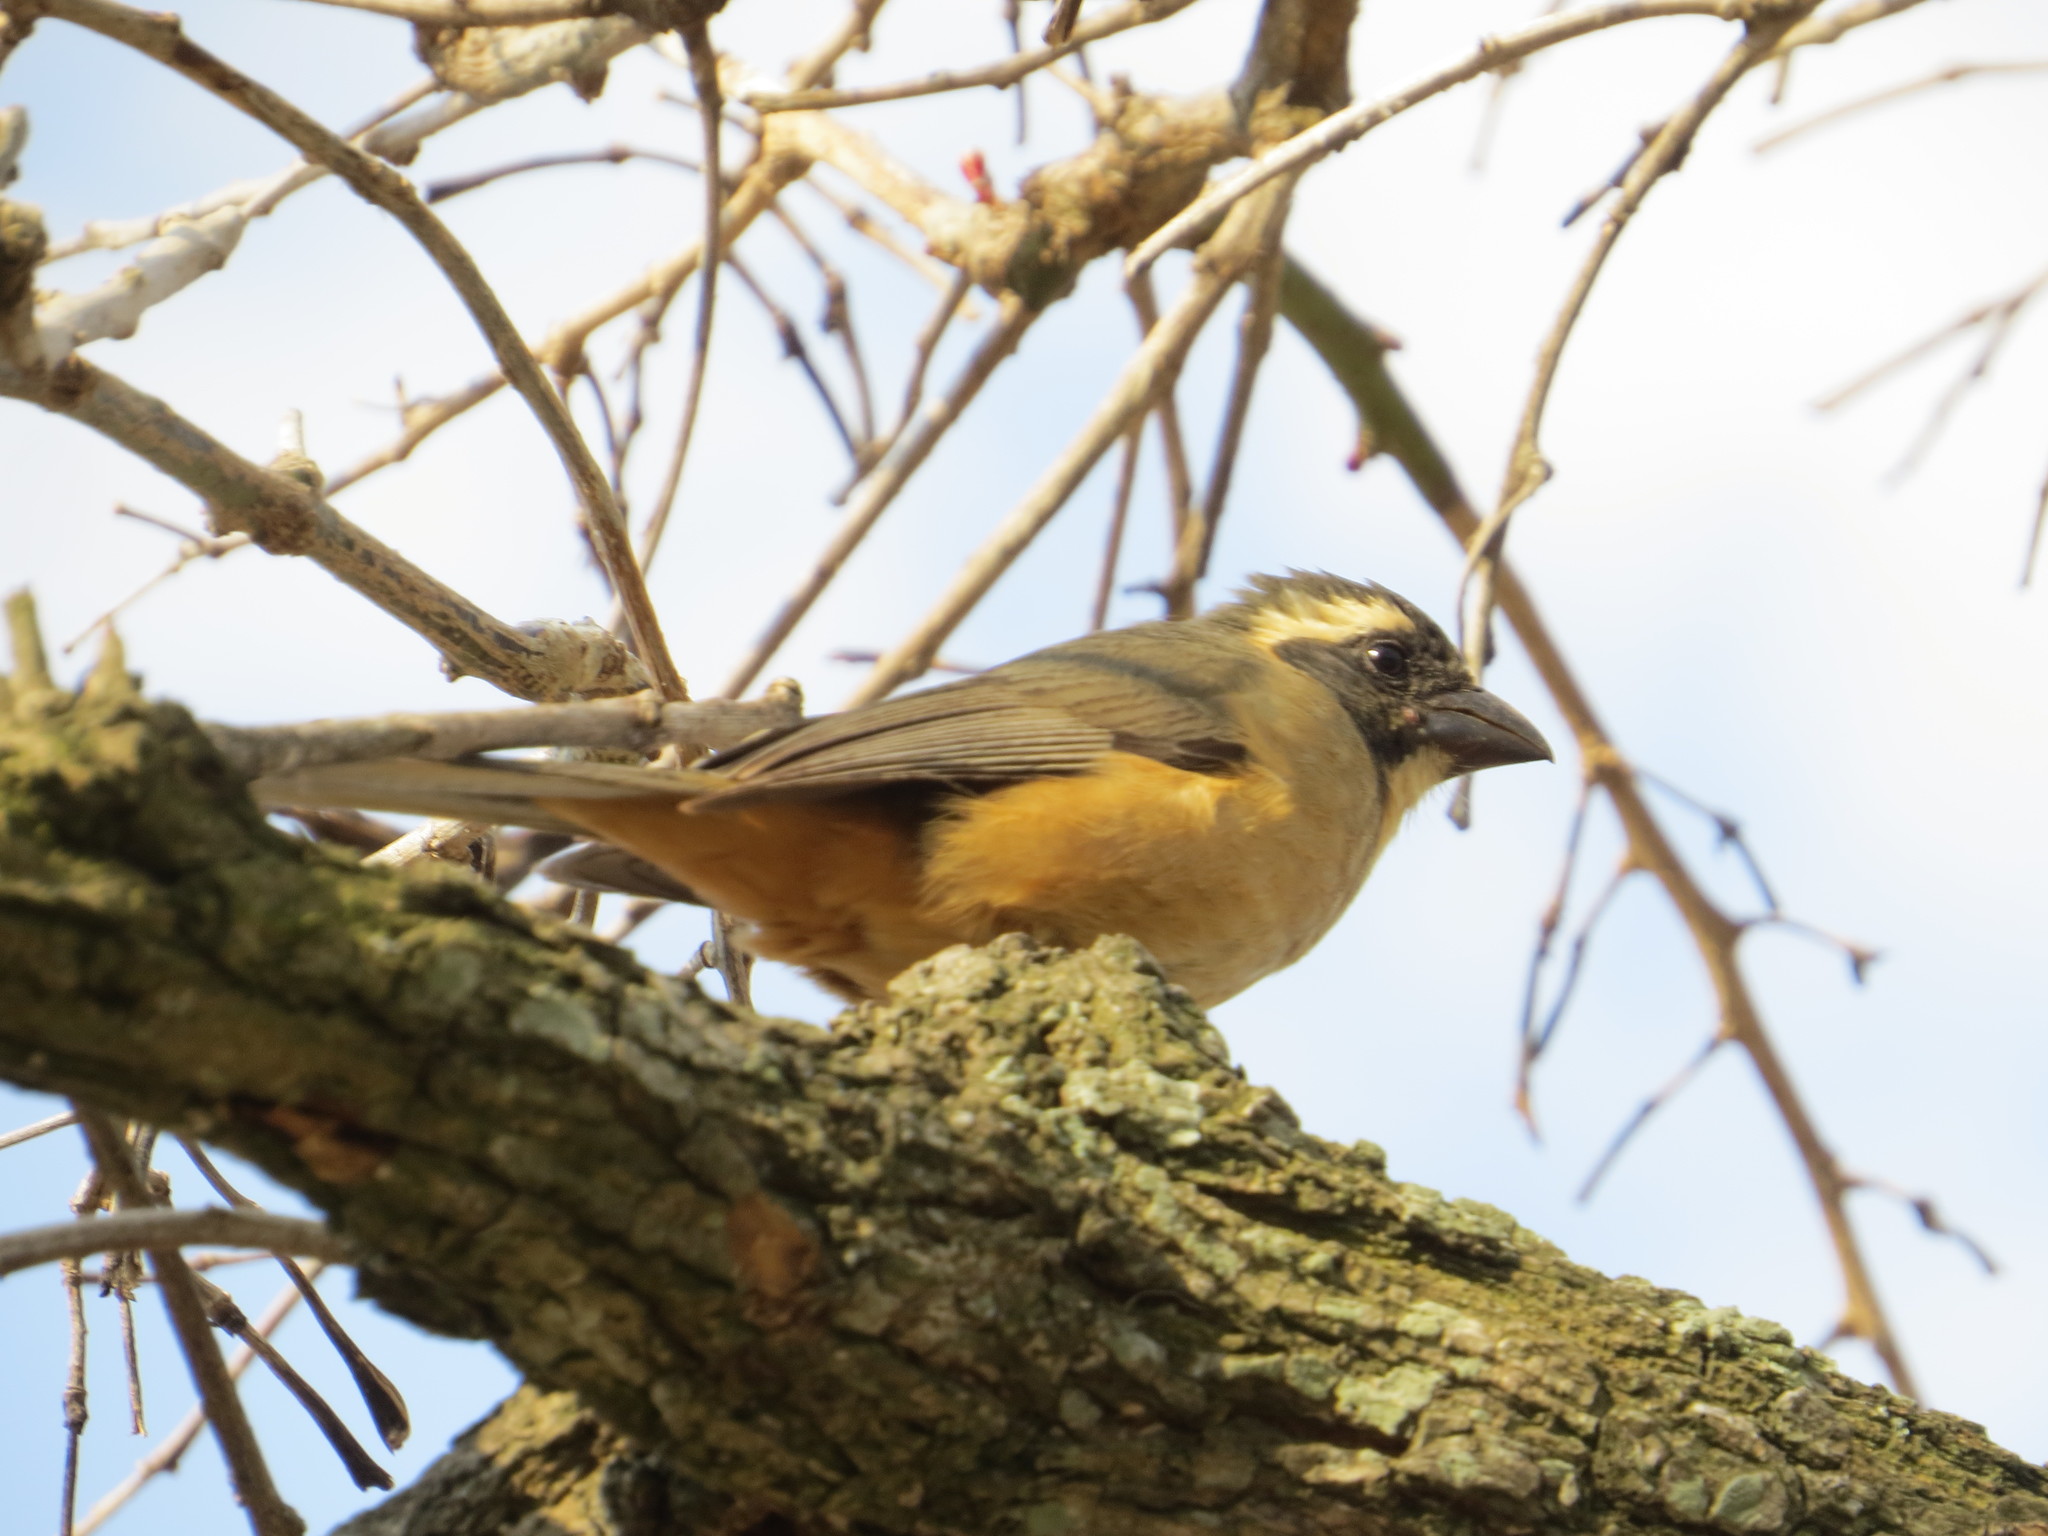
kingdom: Animalia
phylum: Chordata
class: Aves
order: Passeriformes
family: Thraupidae
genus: Saltator
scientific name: Saltator aurantiirostris
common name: Golden-billed saltator
